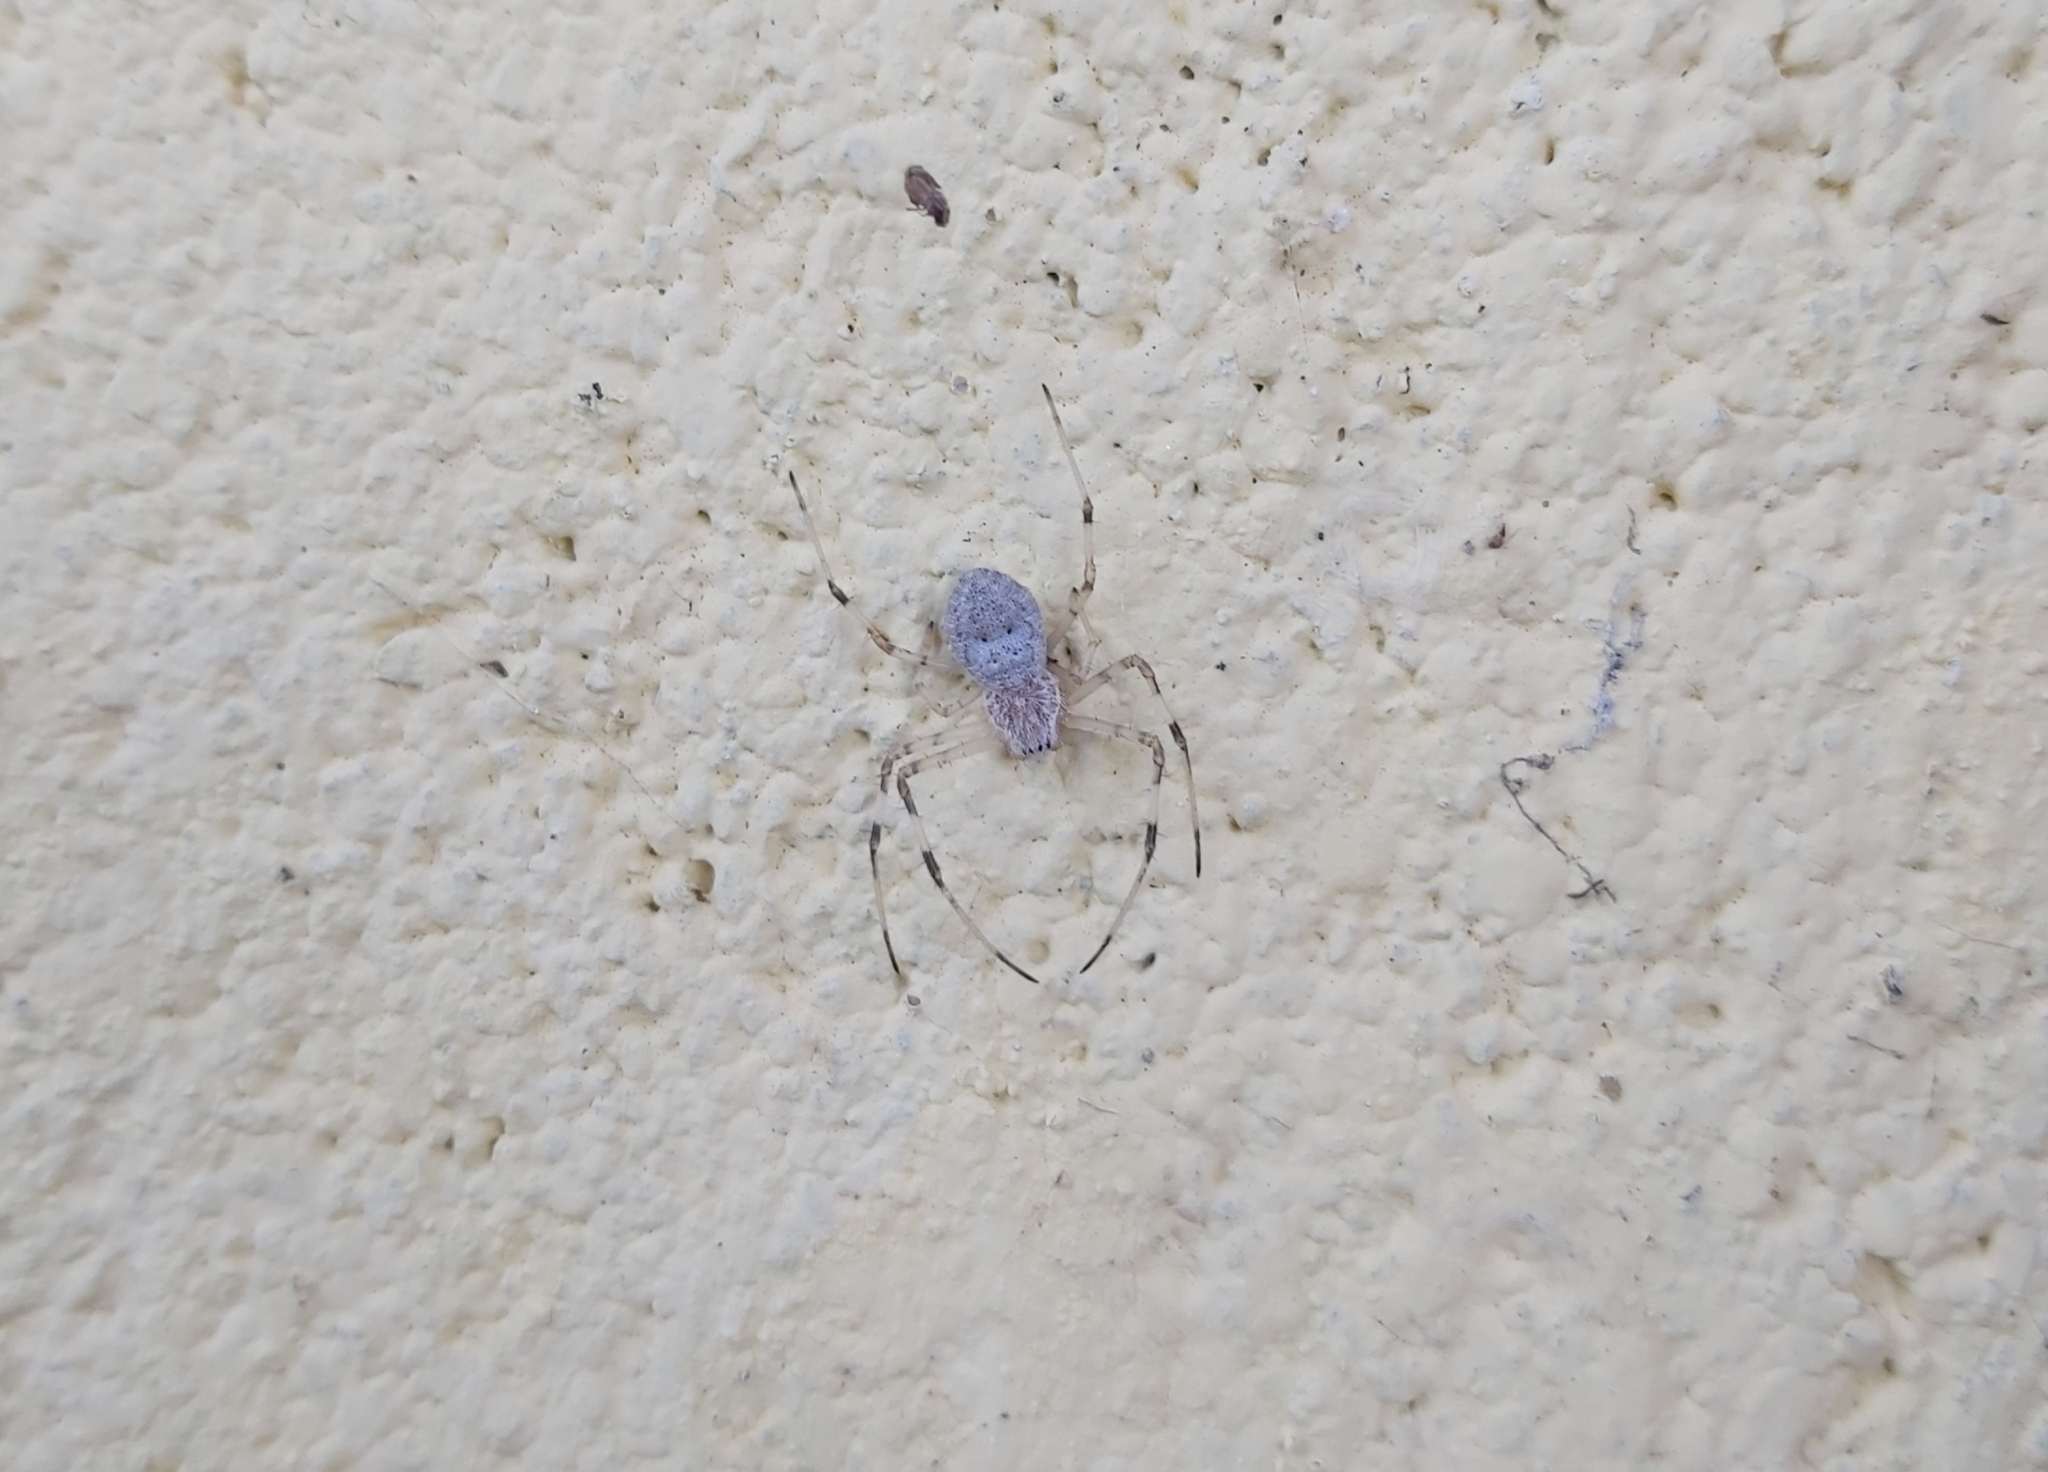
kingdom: Animalia
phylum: Arthropoda
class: Arachnida
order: Araneae
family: Araneidae
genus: Herennia
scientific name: Herennia multipuncta
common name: Spotted coin spider
